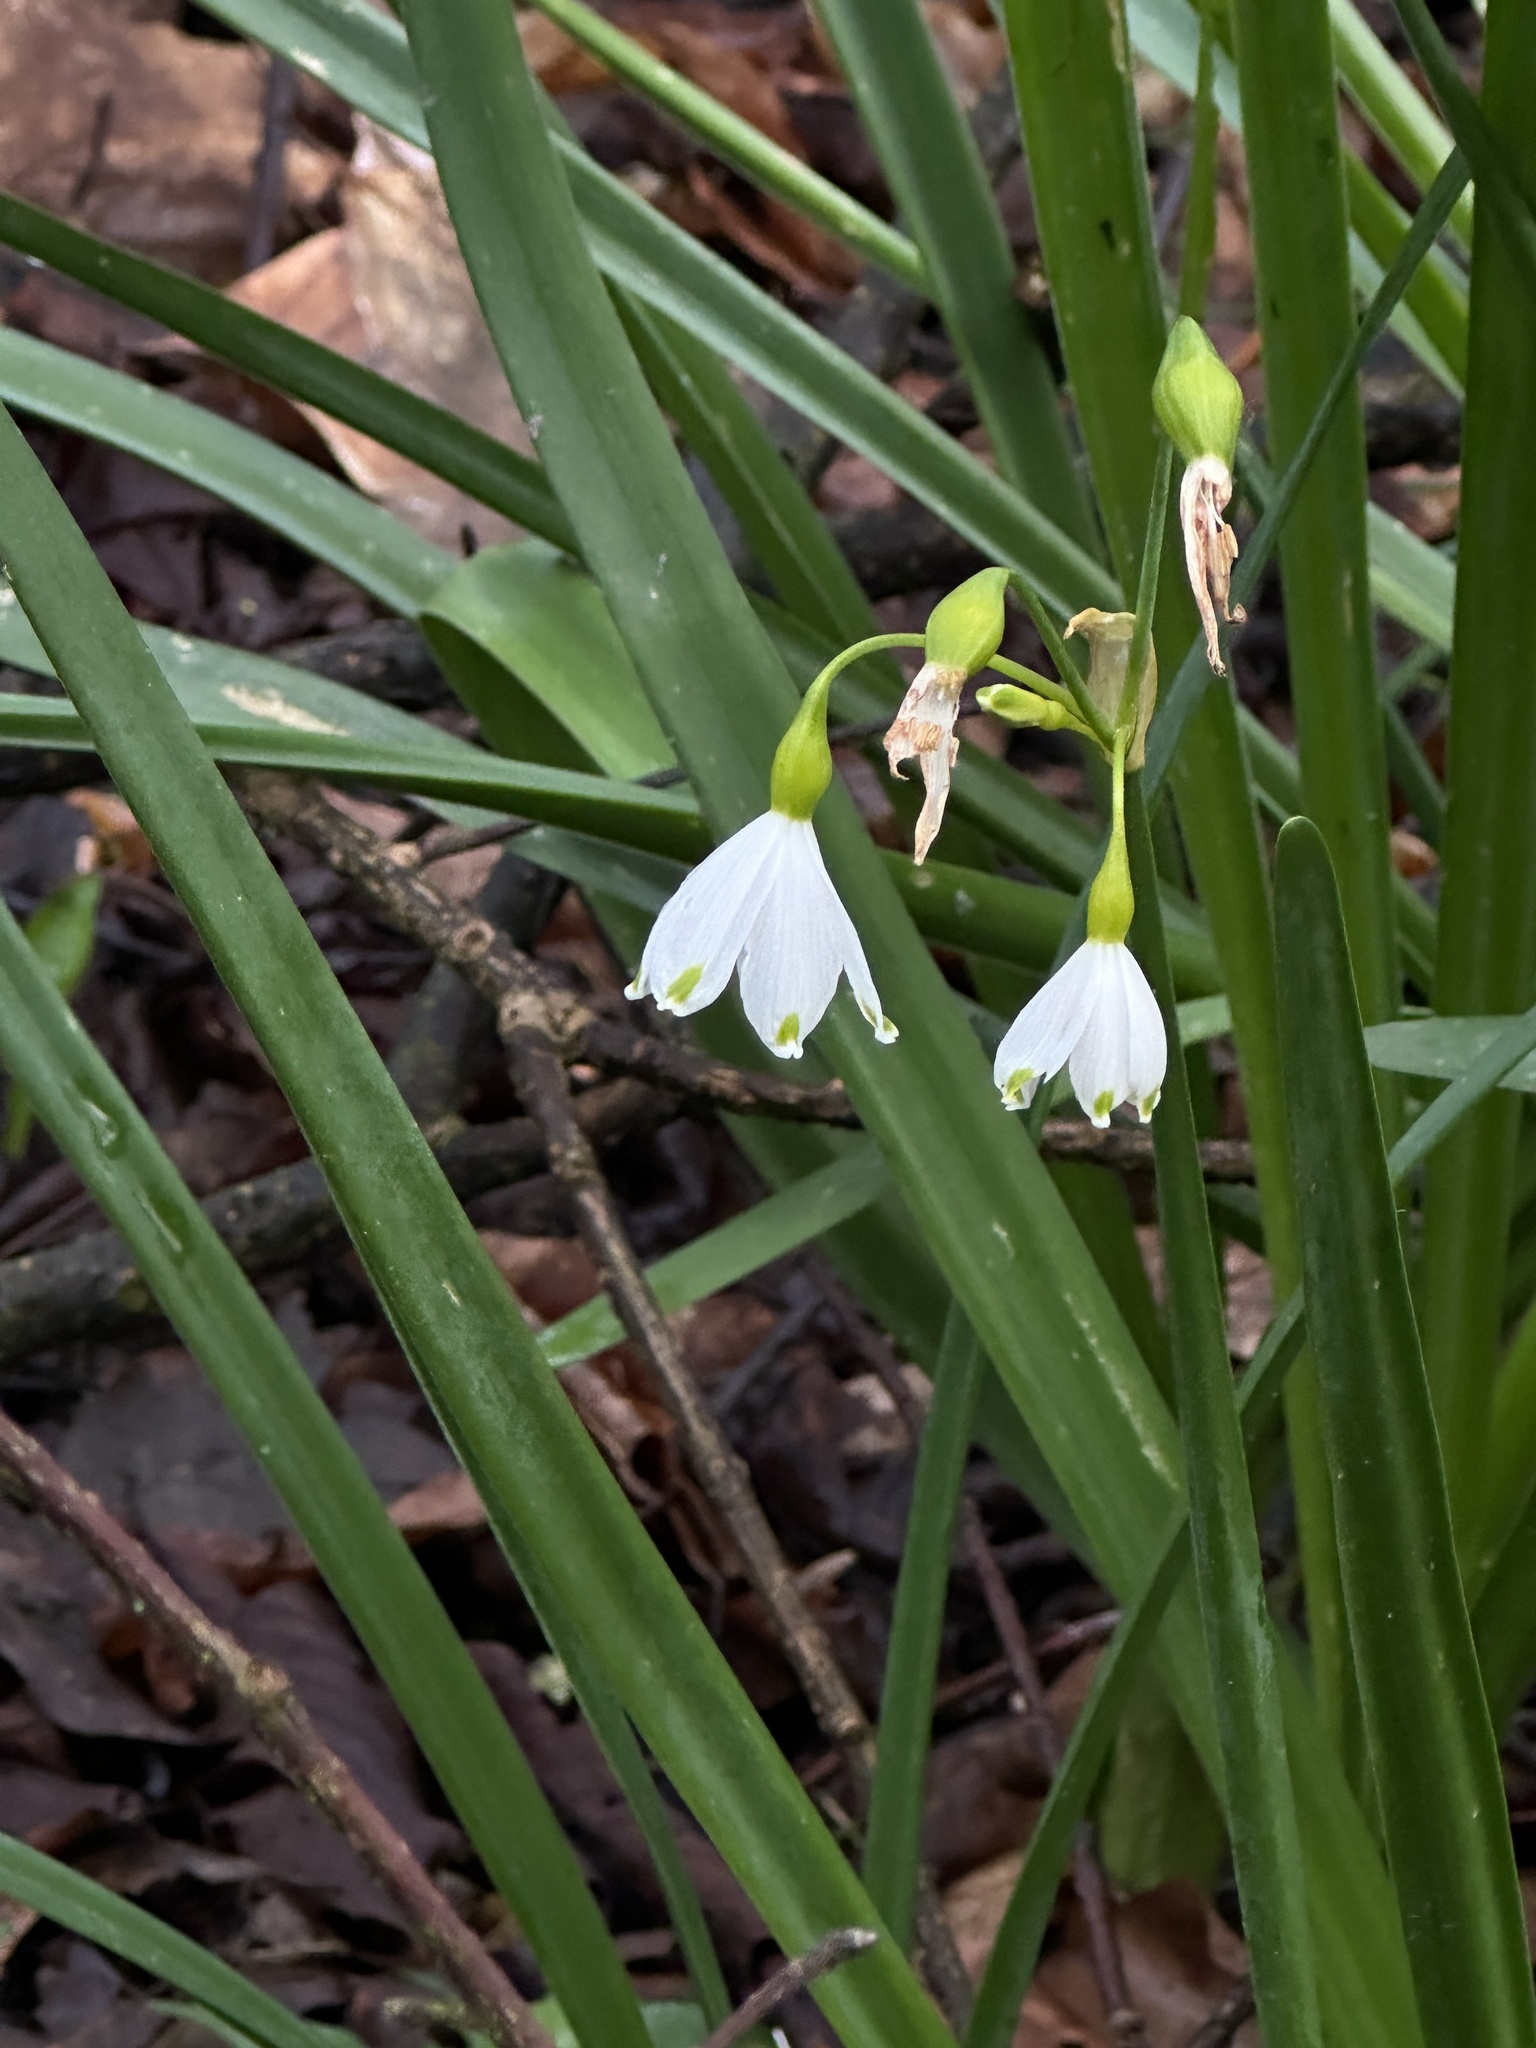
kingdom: Plantae
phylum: Tracheophyta
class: Liliopsida
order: Asparagales
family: Amaryllidaceae
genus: Leucojum
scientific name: Leucojum aestivum
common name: Summer snowflake
